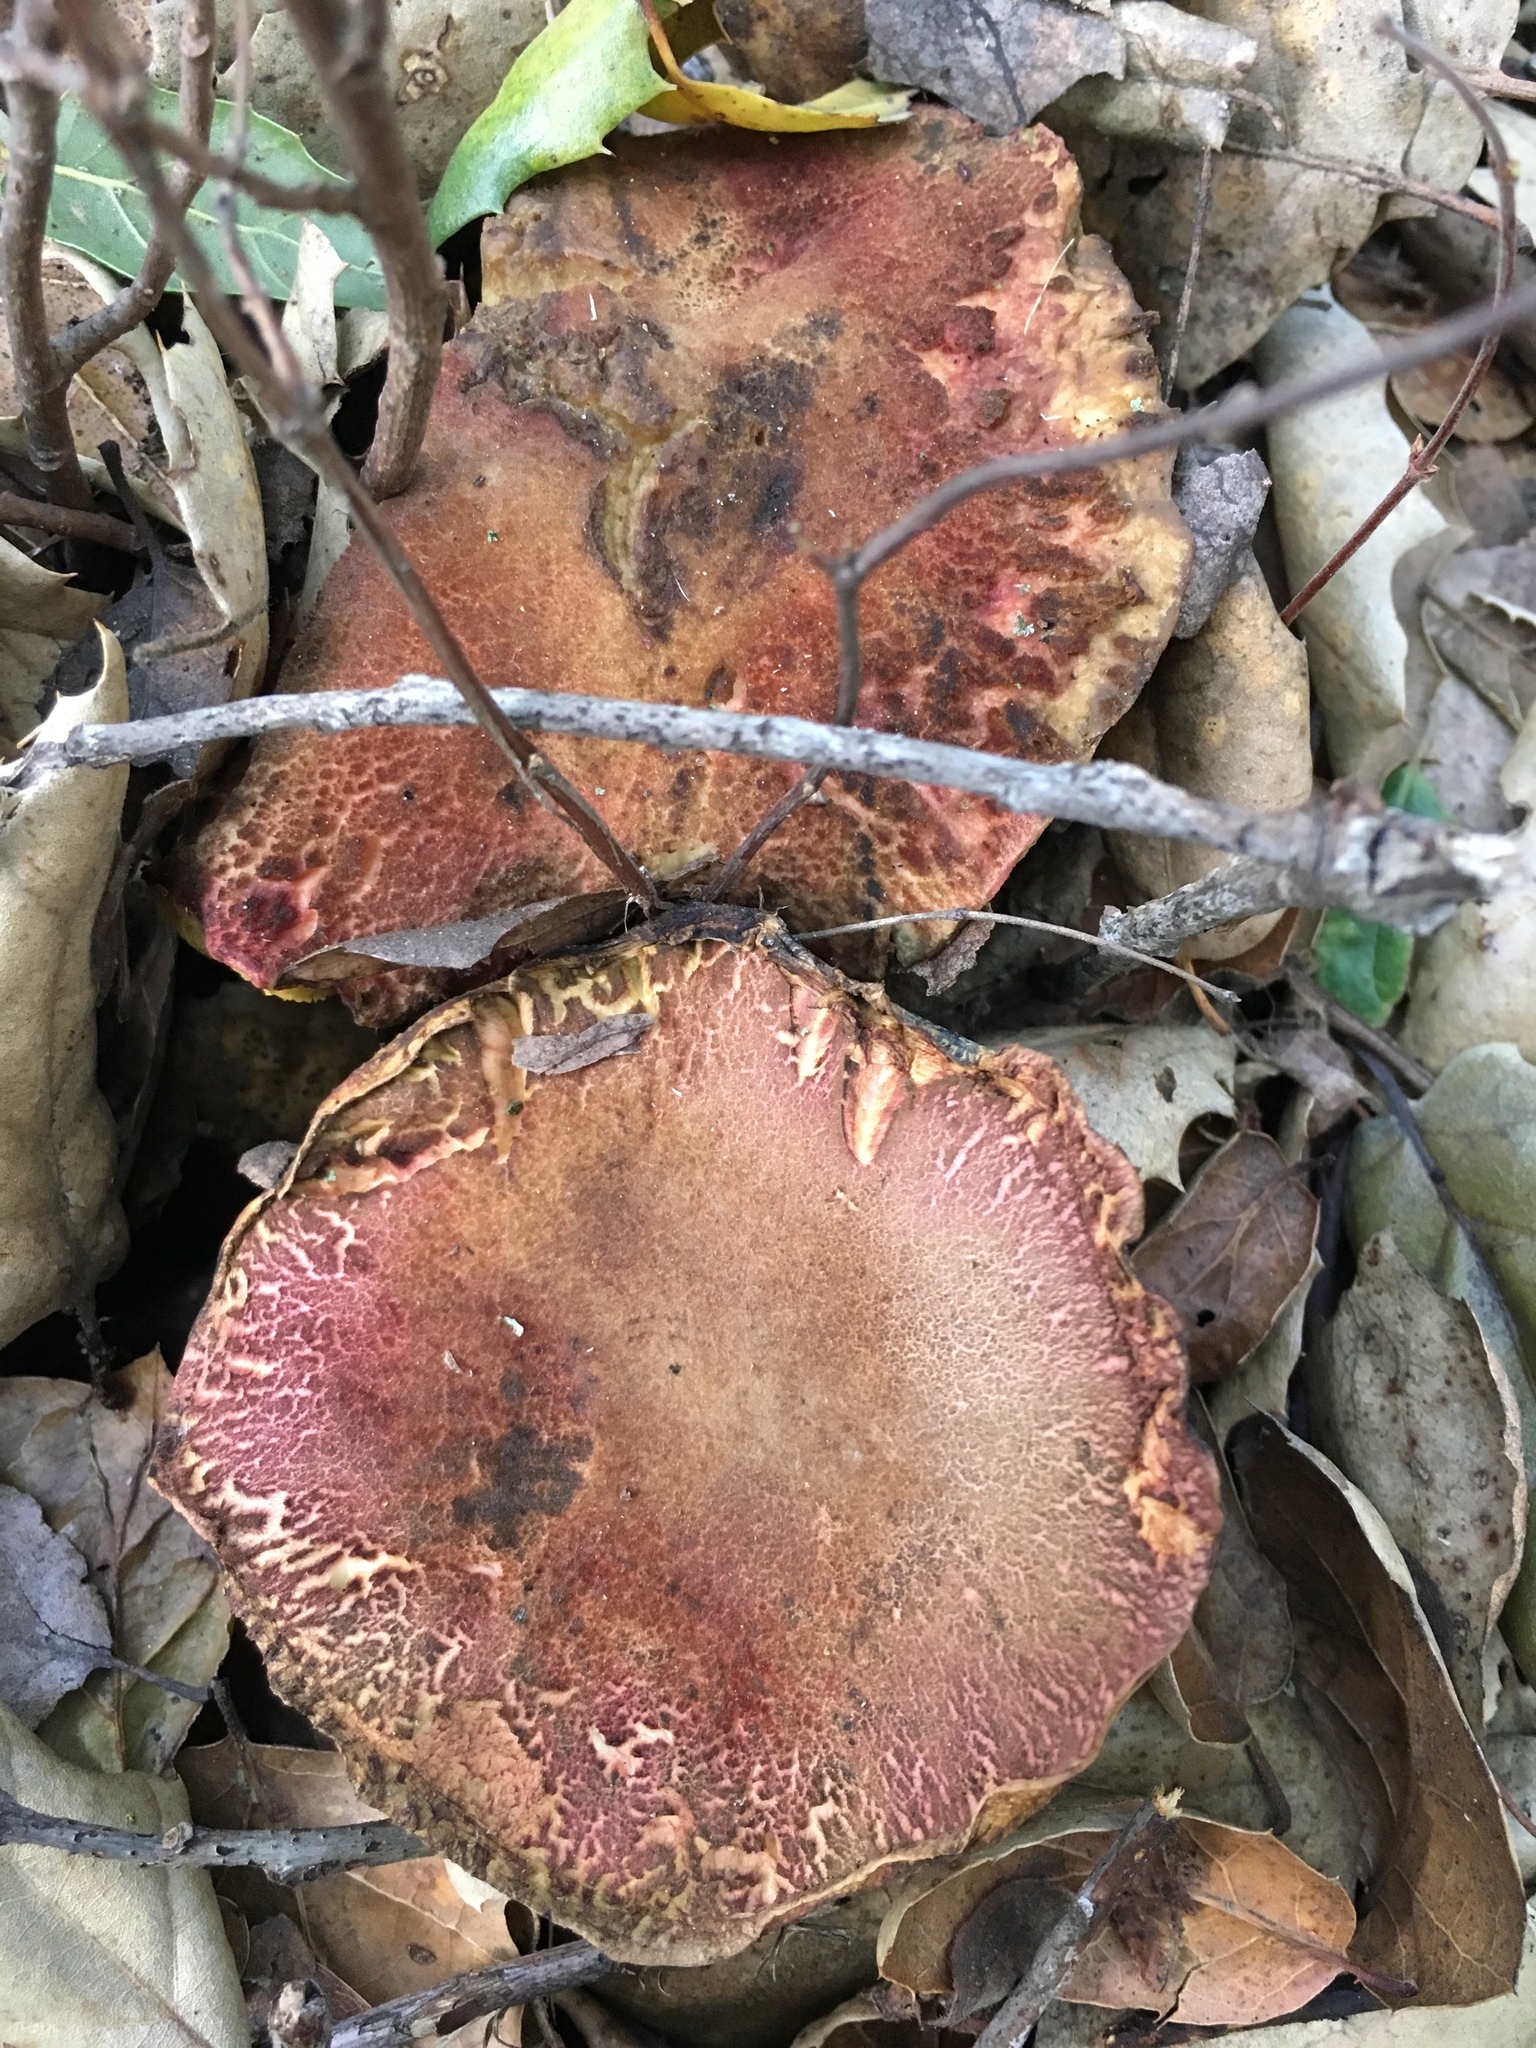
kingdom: Fungi
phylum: Basidiomycota
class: Agaricomycetes
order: Boletales
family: Boletaceae
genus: Xerocomellus
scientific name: Xerocomellus dryophilus
